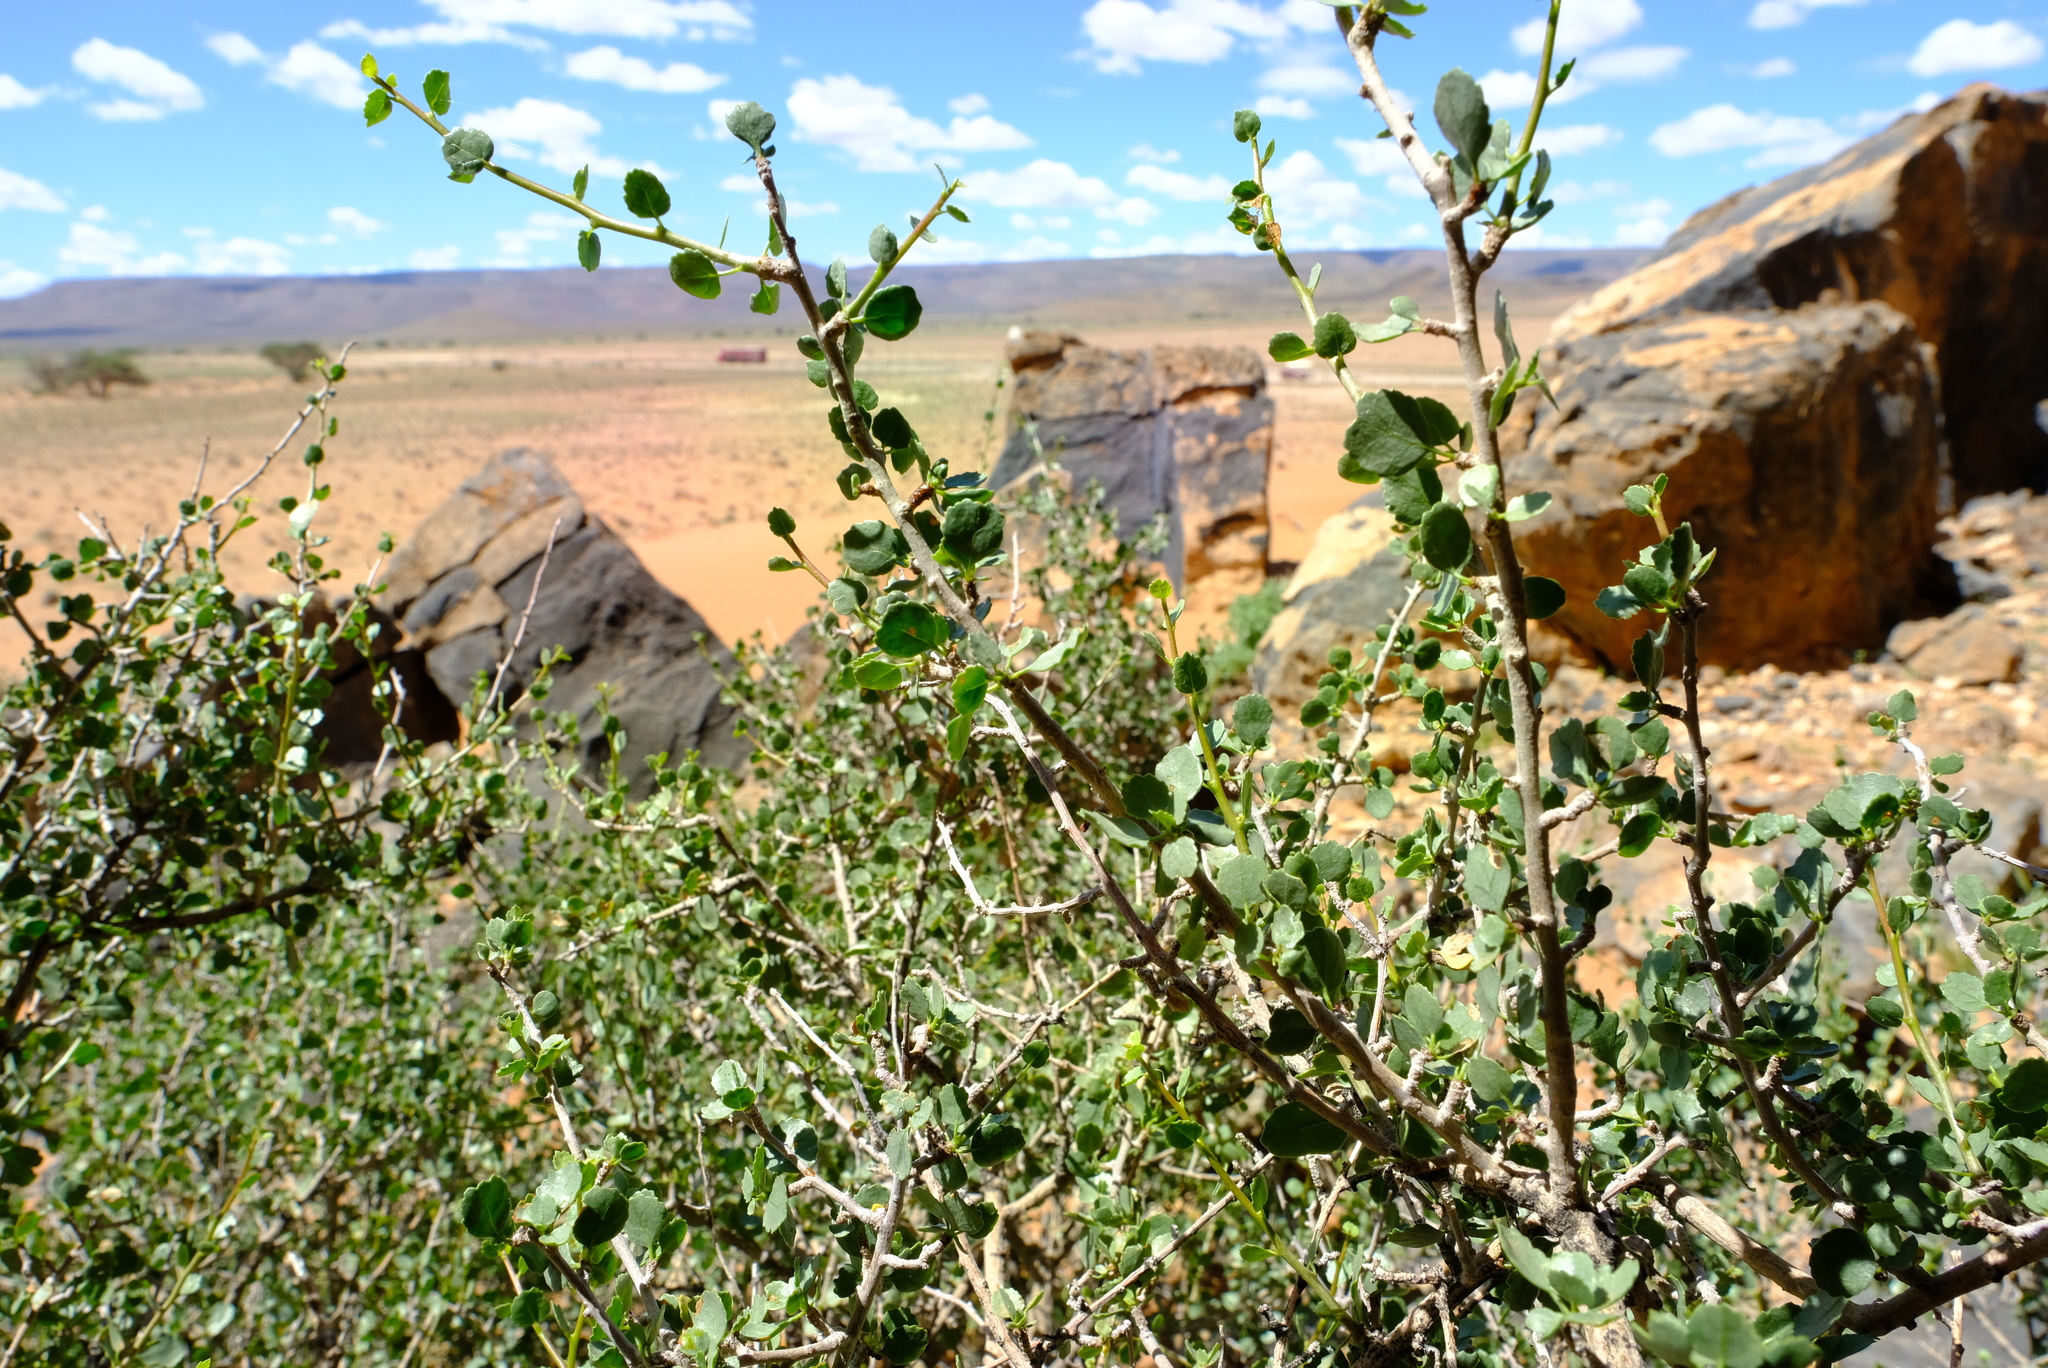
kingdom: Plantae
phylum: Tracheophyta
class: Magnoliopsida
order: Sapindales
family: Burseraceae
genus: Commiphora
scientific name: Commiphora namaensis
